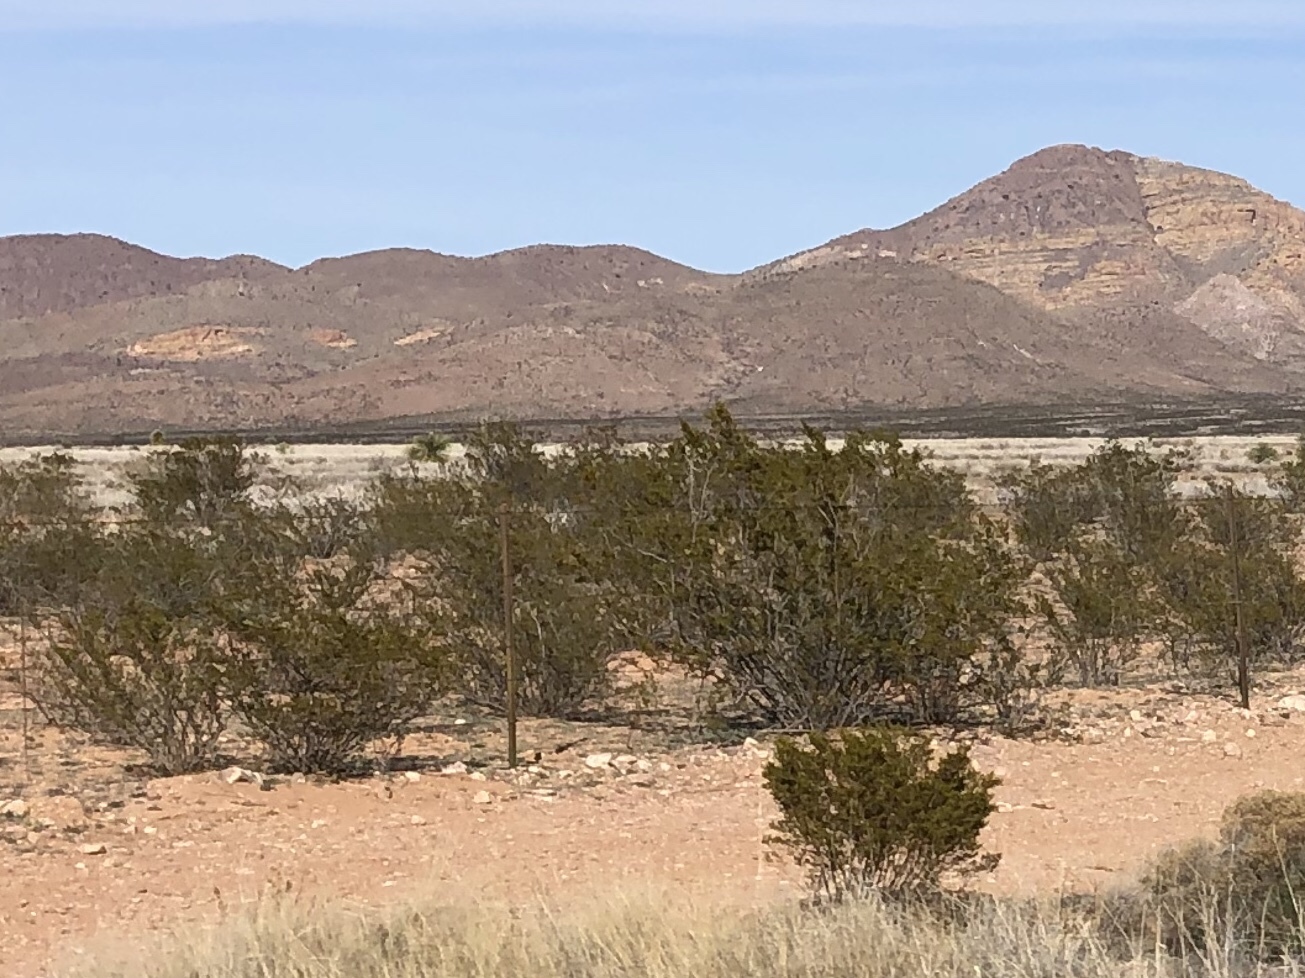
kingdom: Plantae
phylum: Tracheophyta
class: Magnoliopsida
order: Zygophyllales
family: Zygophyllaceae
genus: Larrea
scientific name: Larrea tridentata
